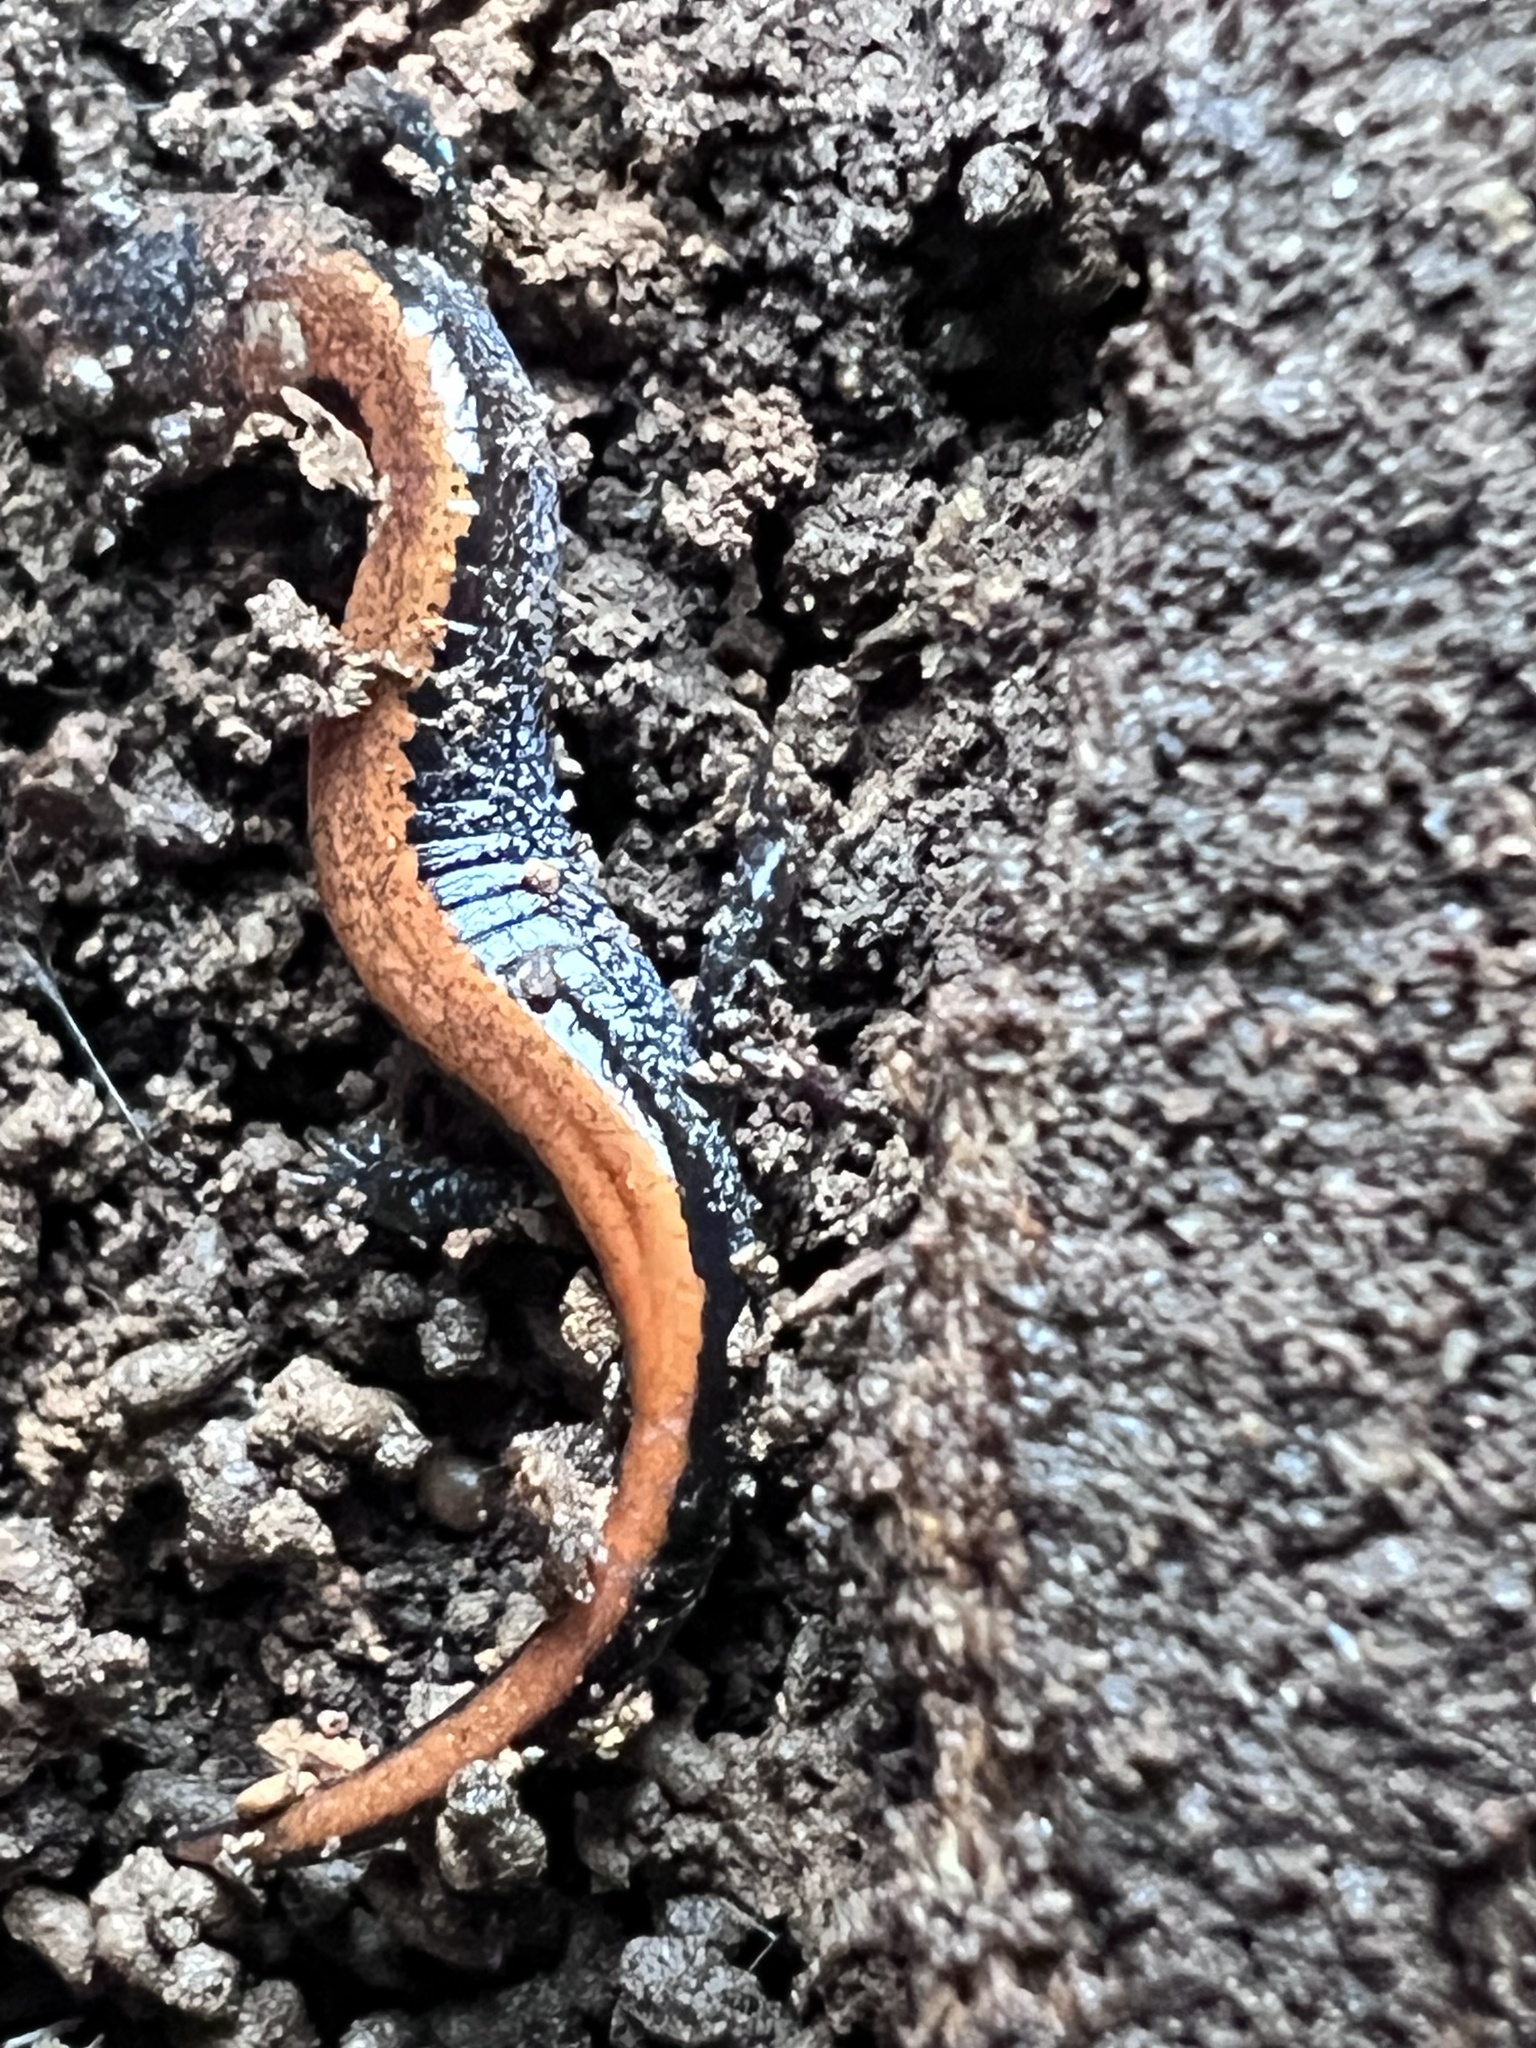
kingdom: Animalia
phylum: Chordata
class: Amphibia
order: Caudata
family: Plethodontidae
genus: Plethodon
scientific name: Plethodon cinereus
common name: Redback salamander
